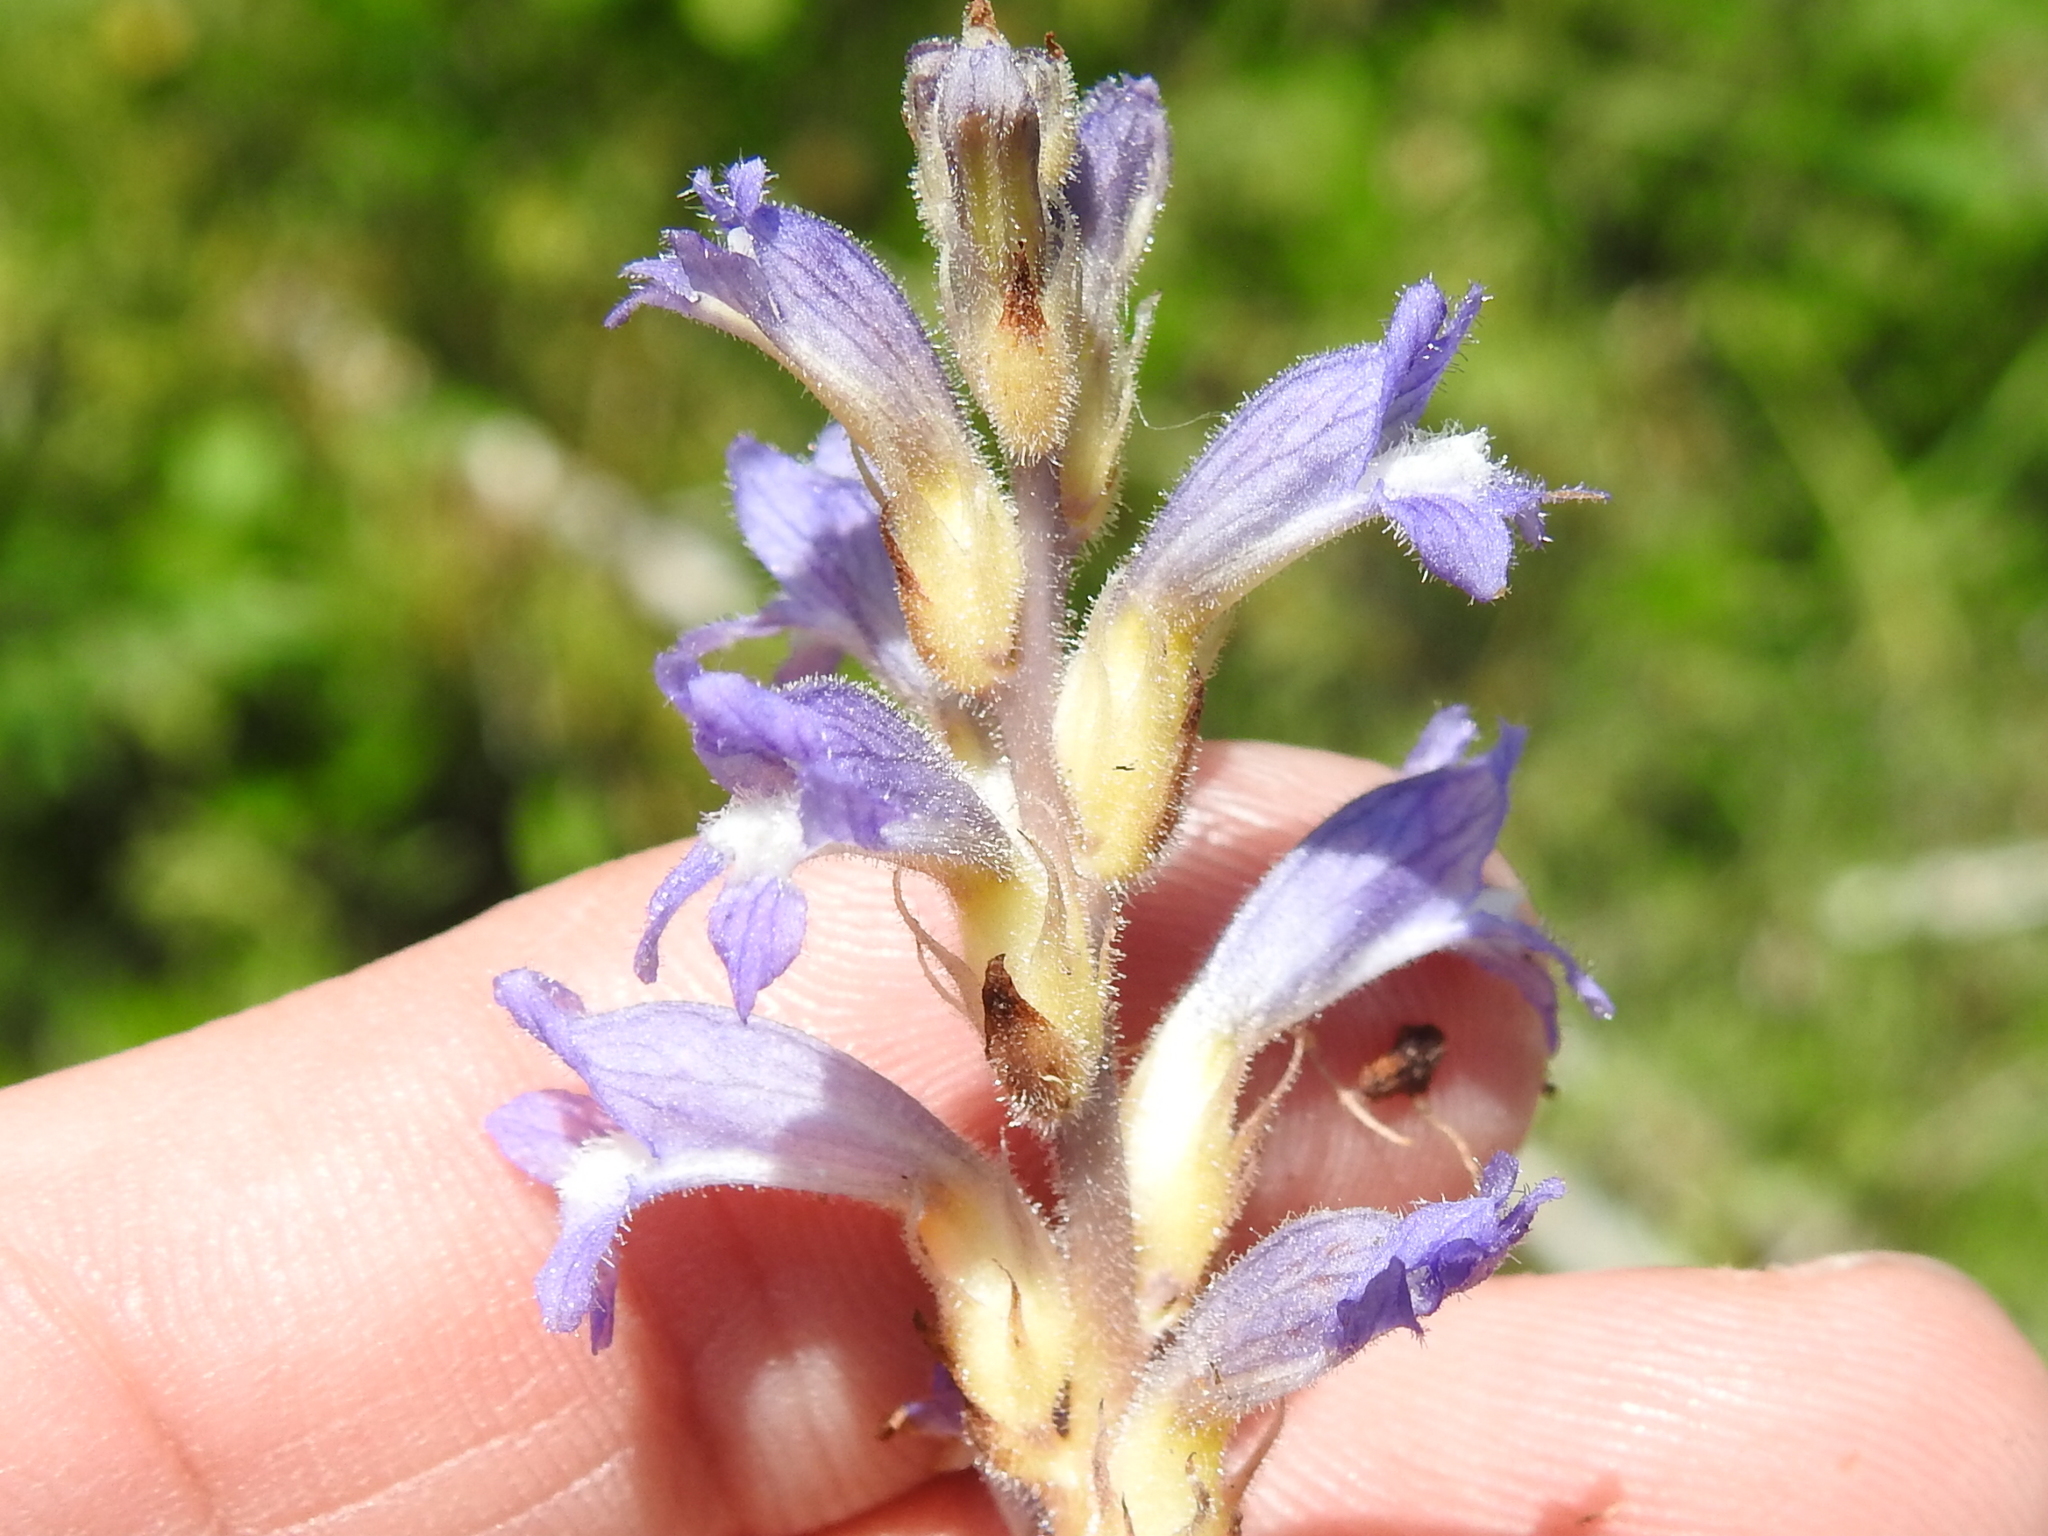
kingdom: Plantae
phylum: Tracheophyta
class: Magnoliopsida
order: Lamiales
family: Orobanchaceae
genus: Phelipanche
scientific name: Phelipanche ramosa
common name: Branched broomrape
